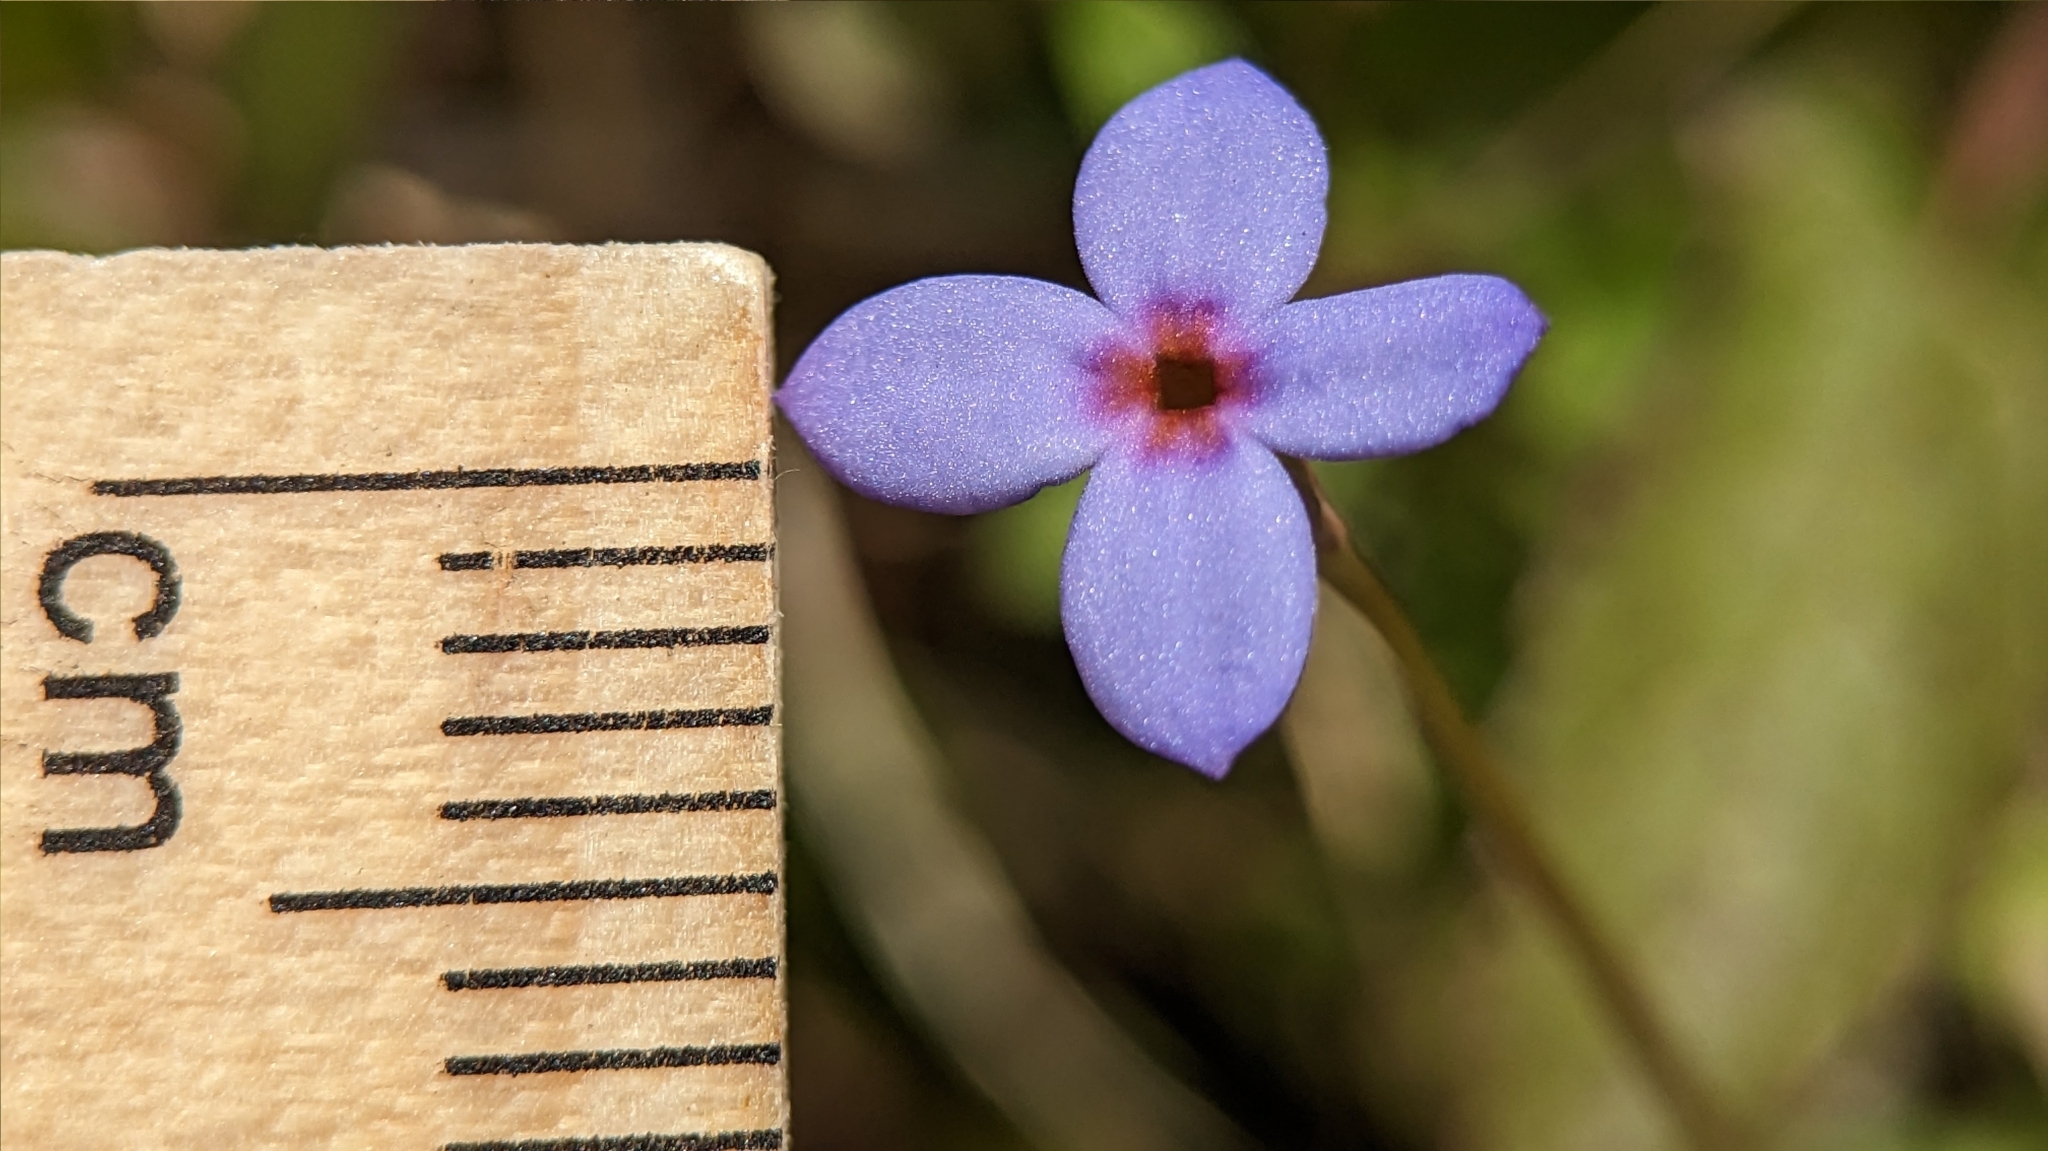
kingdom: Plantae
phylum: Tracheophyta
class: Magnoliopsida
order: Gentianales
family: Rubiaceae
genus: Houstonia
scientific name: Houstonia pusilla
